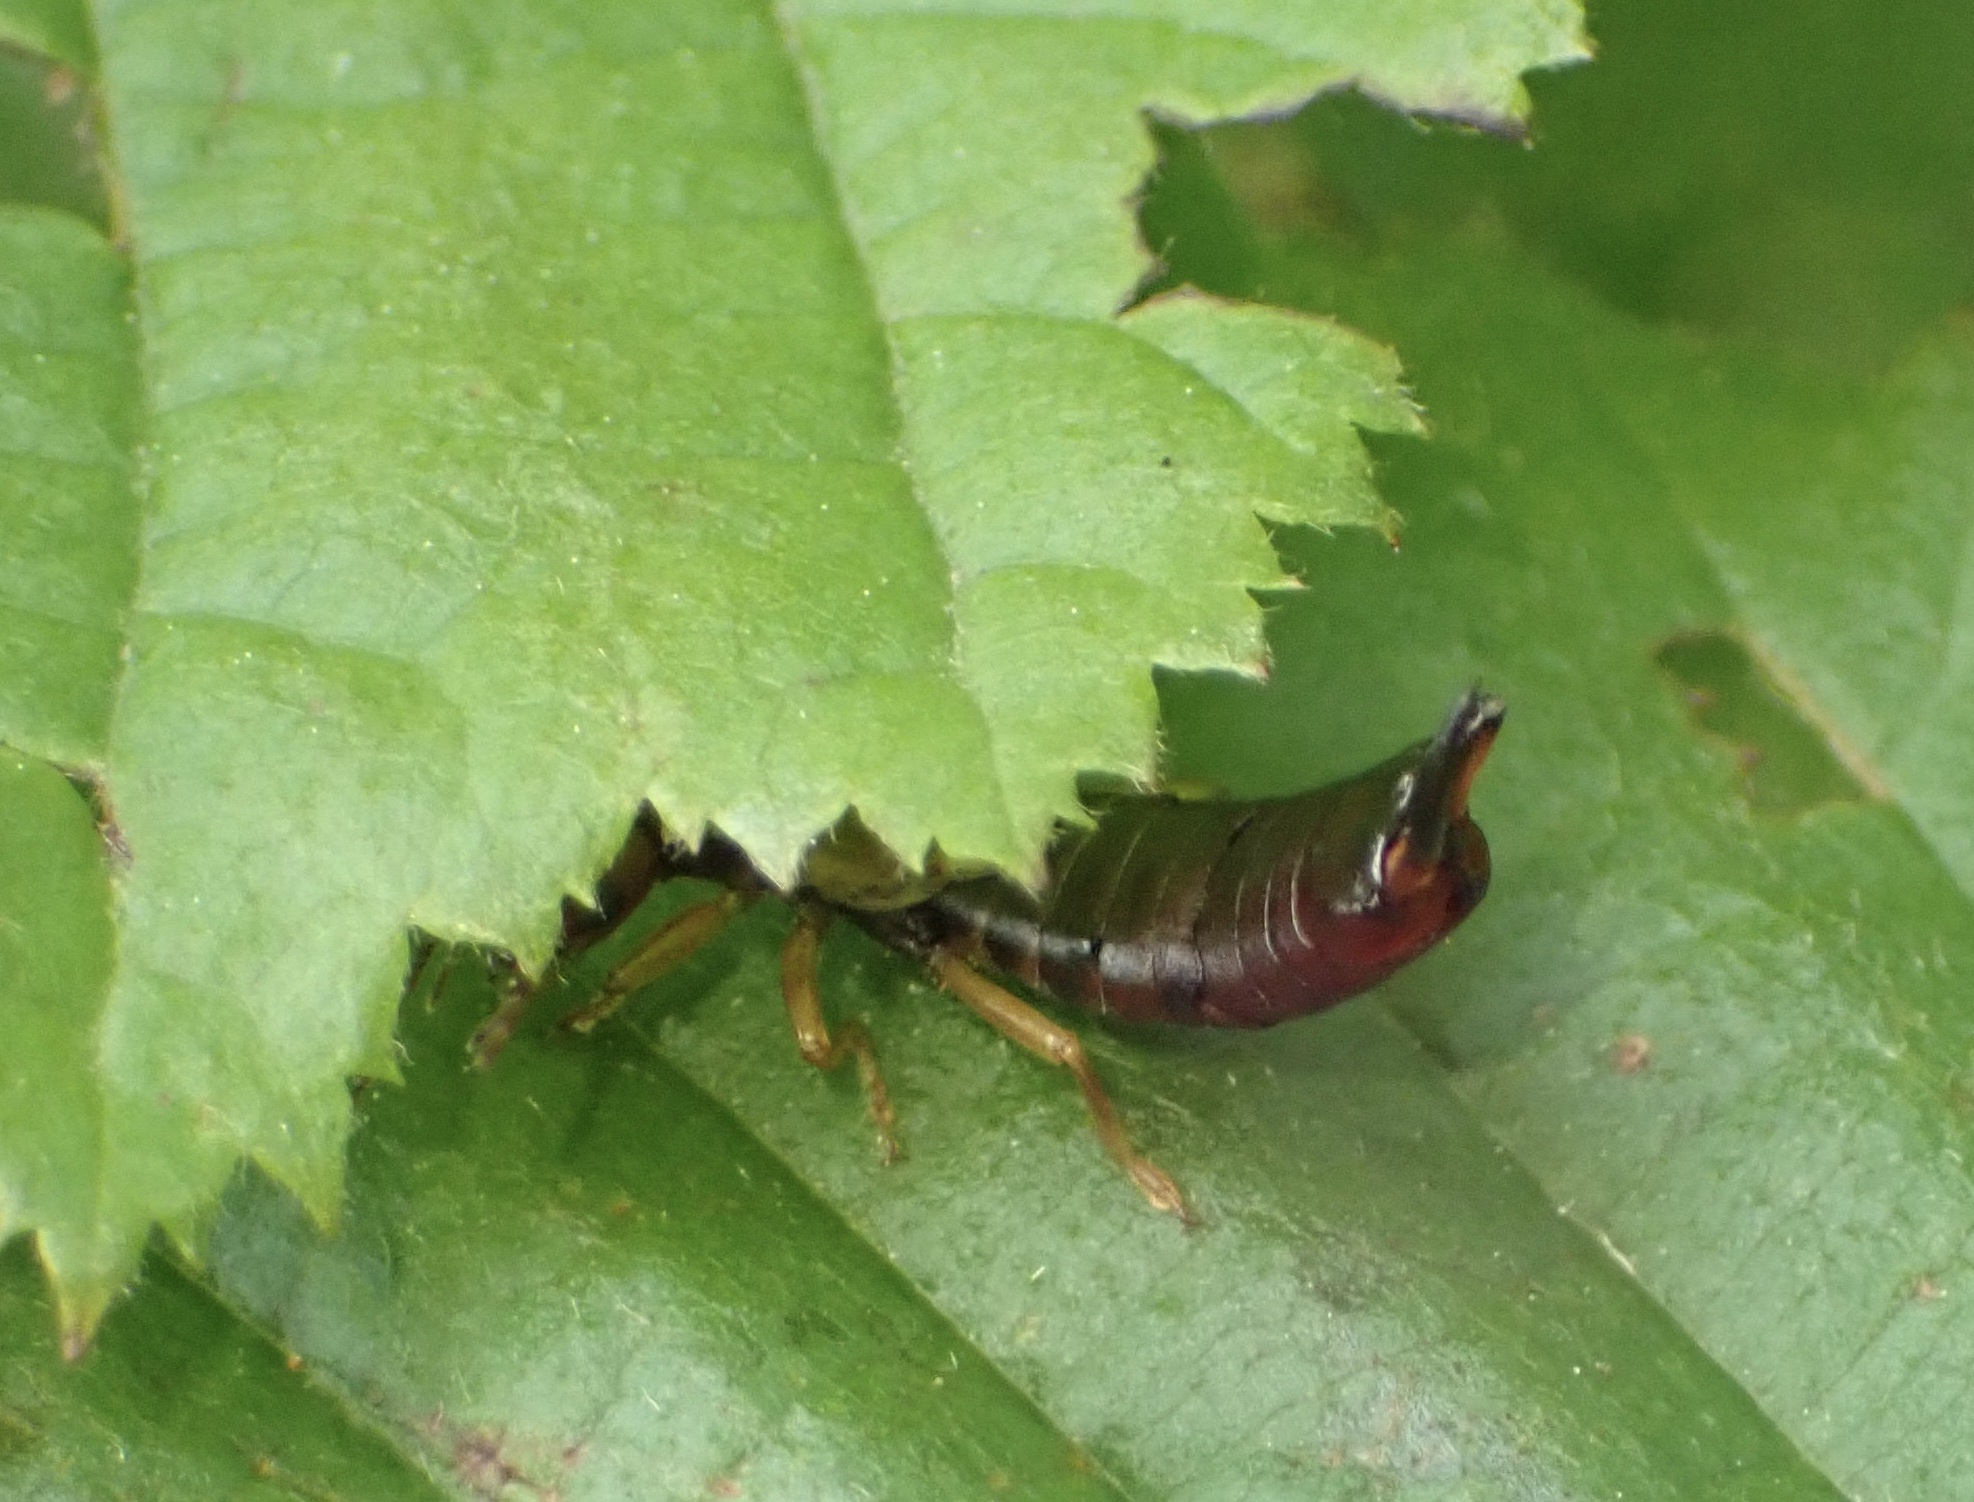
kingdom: Animalia
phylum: Arthropoda
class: Insecta
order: Dermaptera
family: Forficulidae
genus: Forficula
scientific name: Forficula
